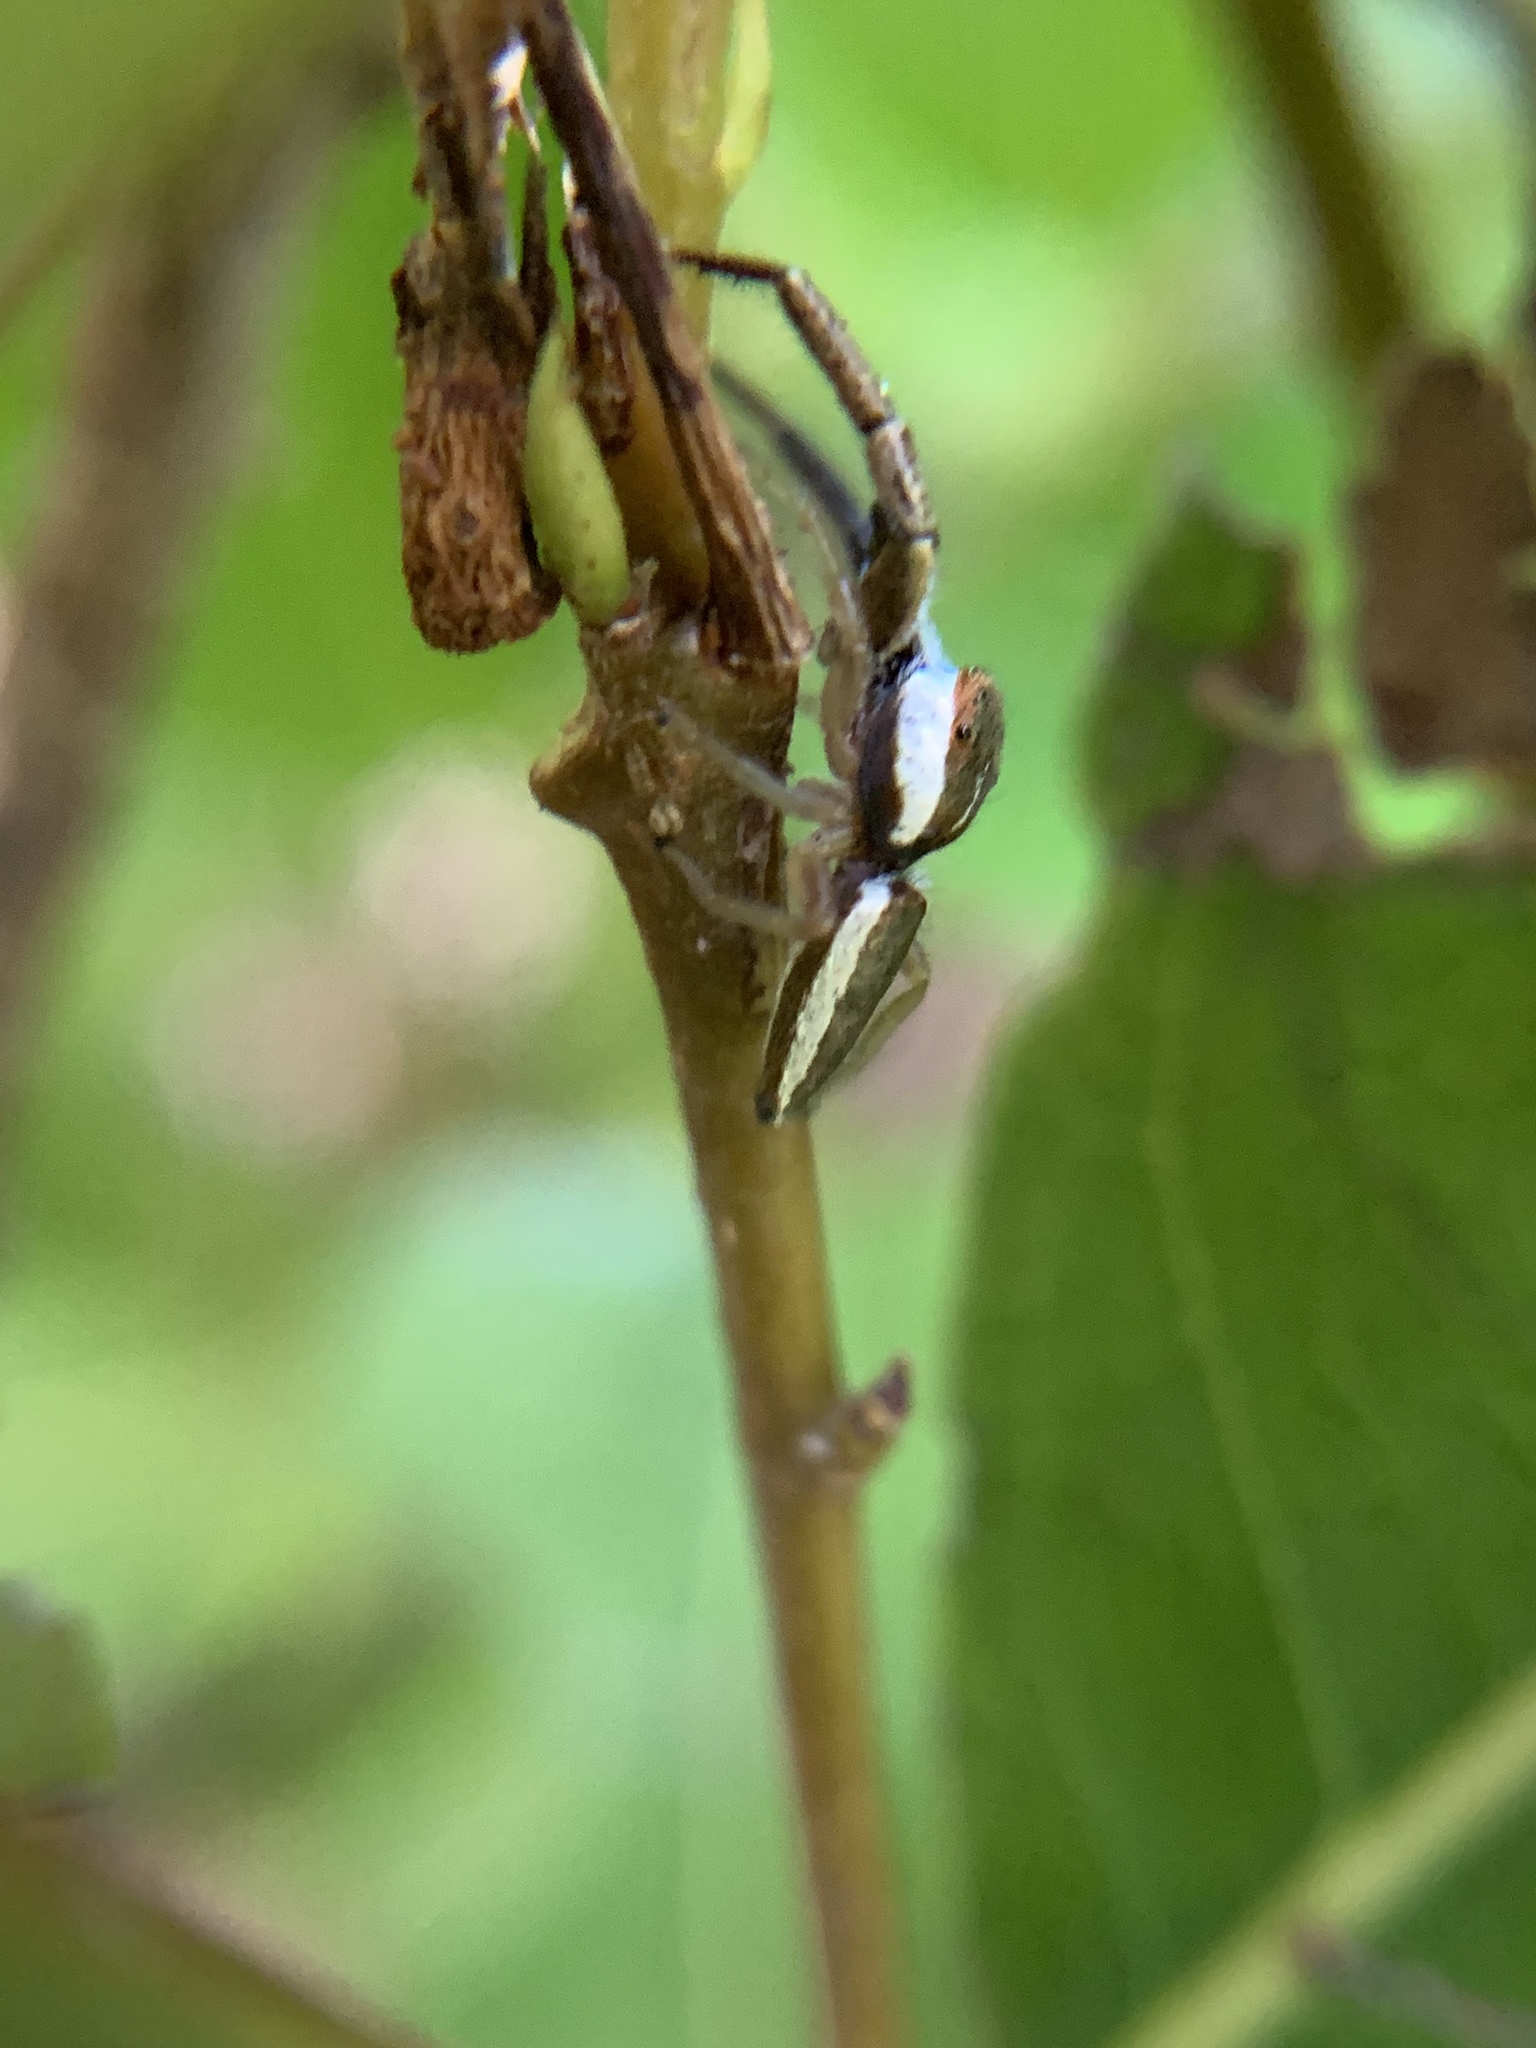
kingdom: Animalia
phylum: Arthropoda
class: Arachnida
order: Araneae
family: Salticidae
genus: Hentzia
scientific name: Hentzia palmarum
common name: Common hentz jumping spider
